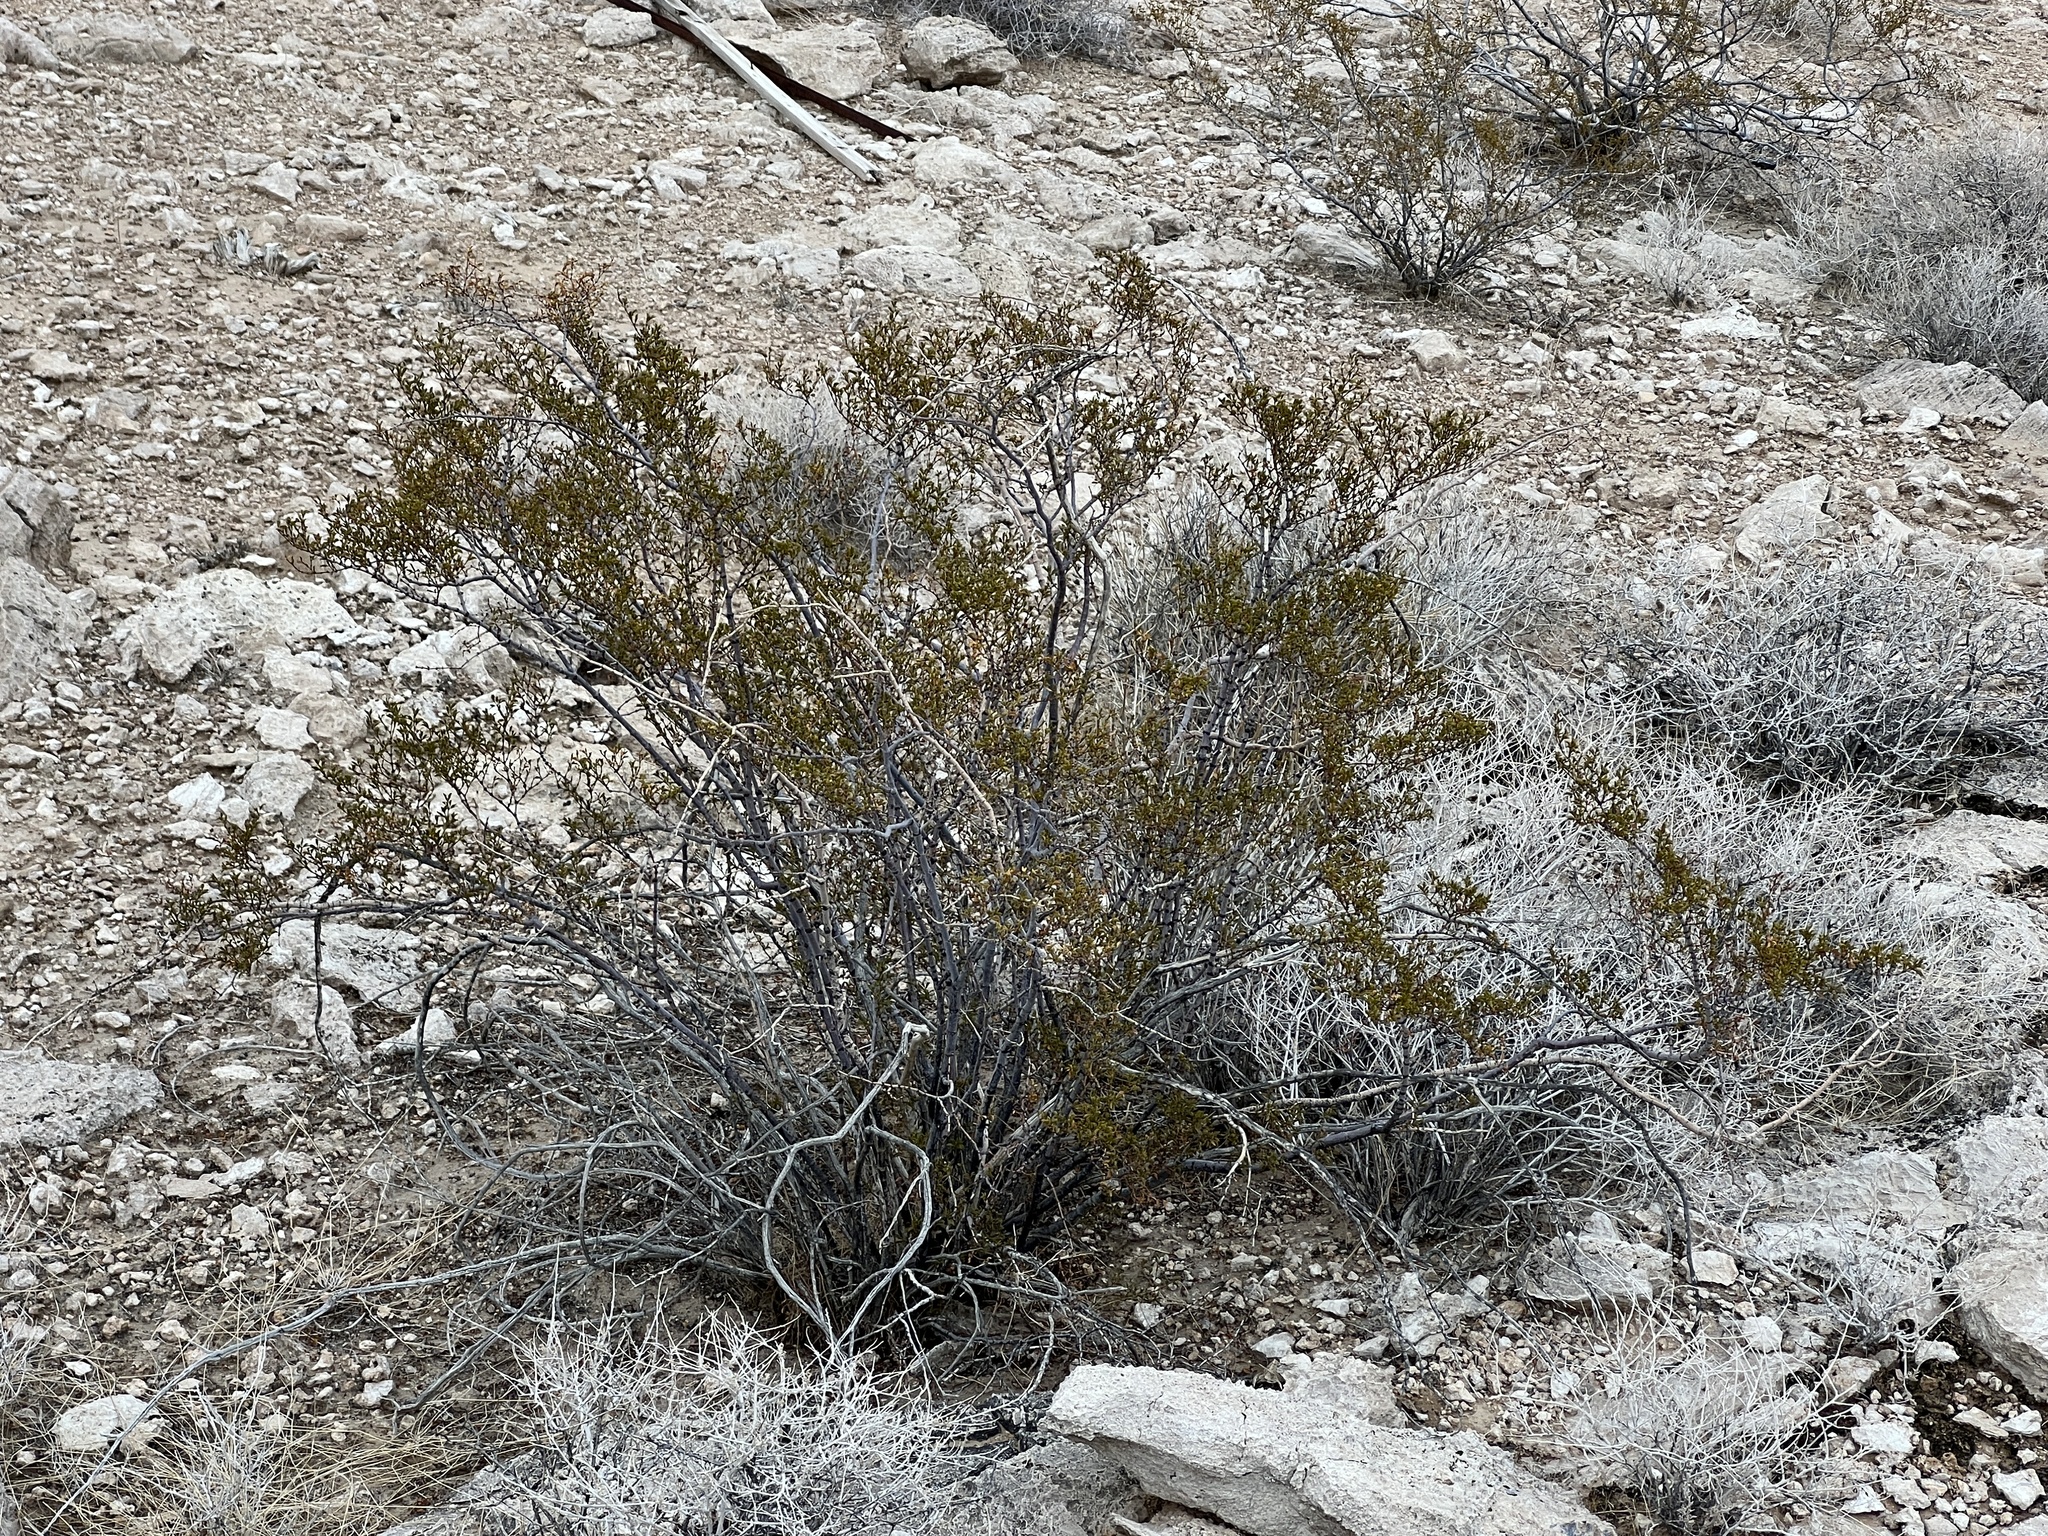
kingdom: Plantae
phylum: Tracheophyta
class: Magnoliopsida
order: Zygophyllales
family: Zygophyllaceae
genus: Larrea
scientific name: Larrea tridentata
